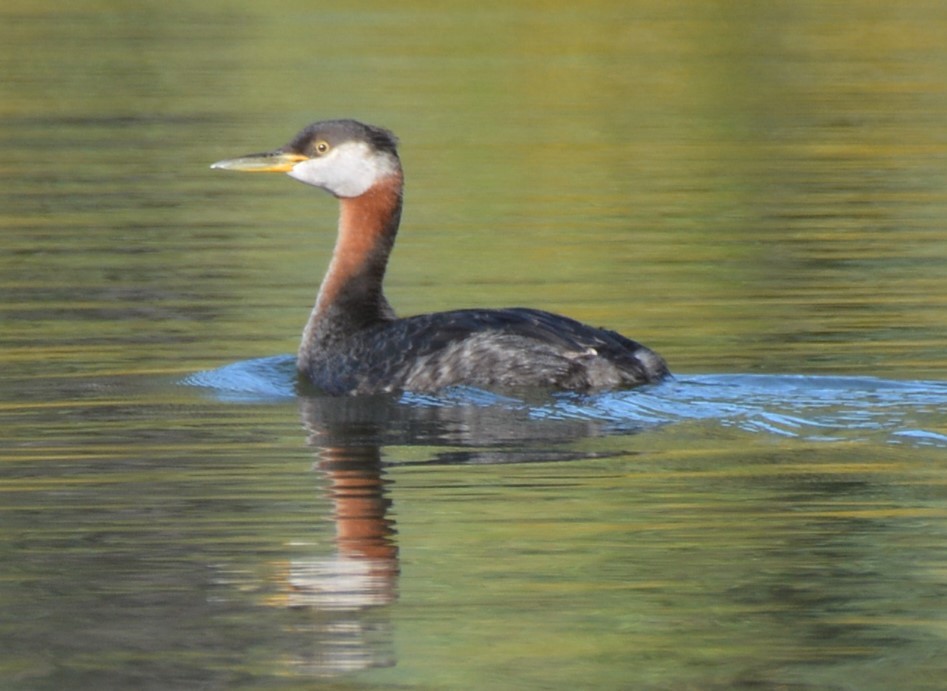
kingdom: Animalia
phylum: Chordata
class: Aves
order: Podicipediformes
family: Podicipedidae
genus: Podiceps
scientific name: Podiceps grisegena
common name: Red-necked grebe
